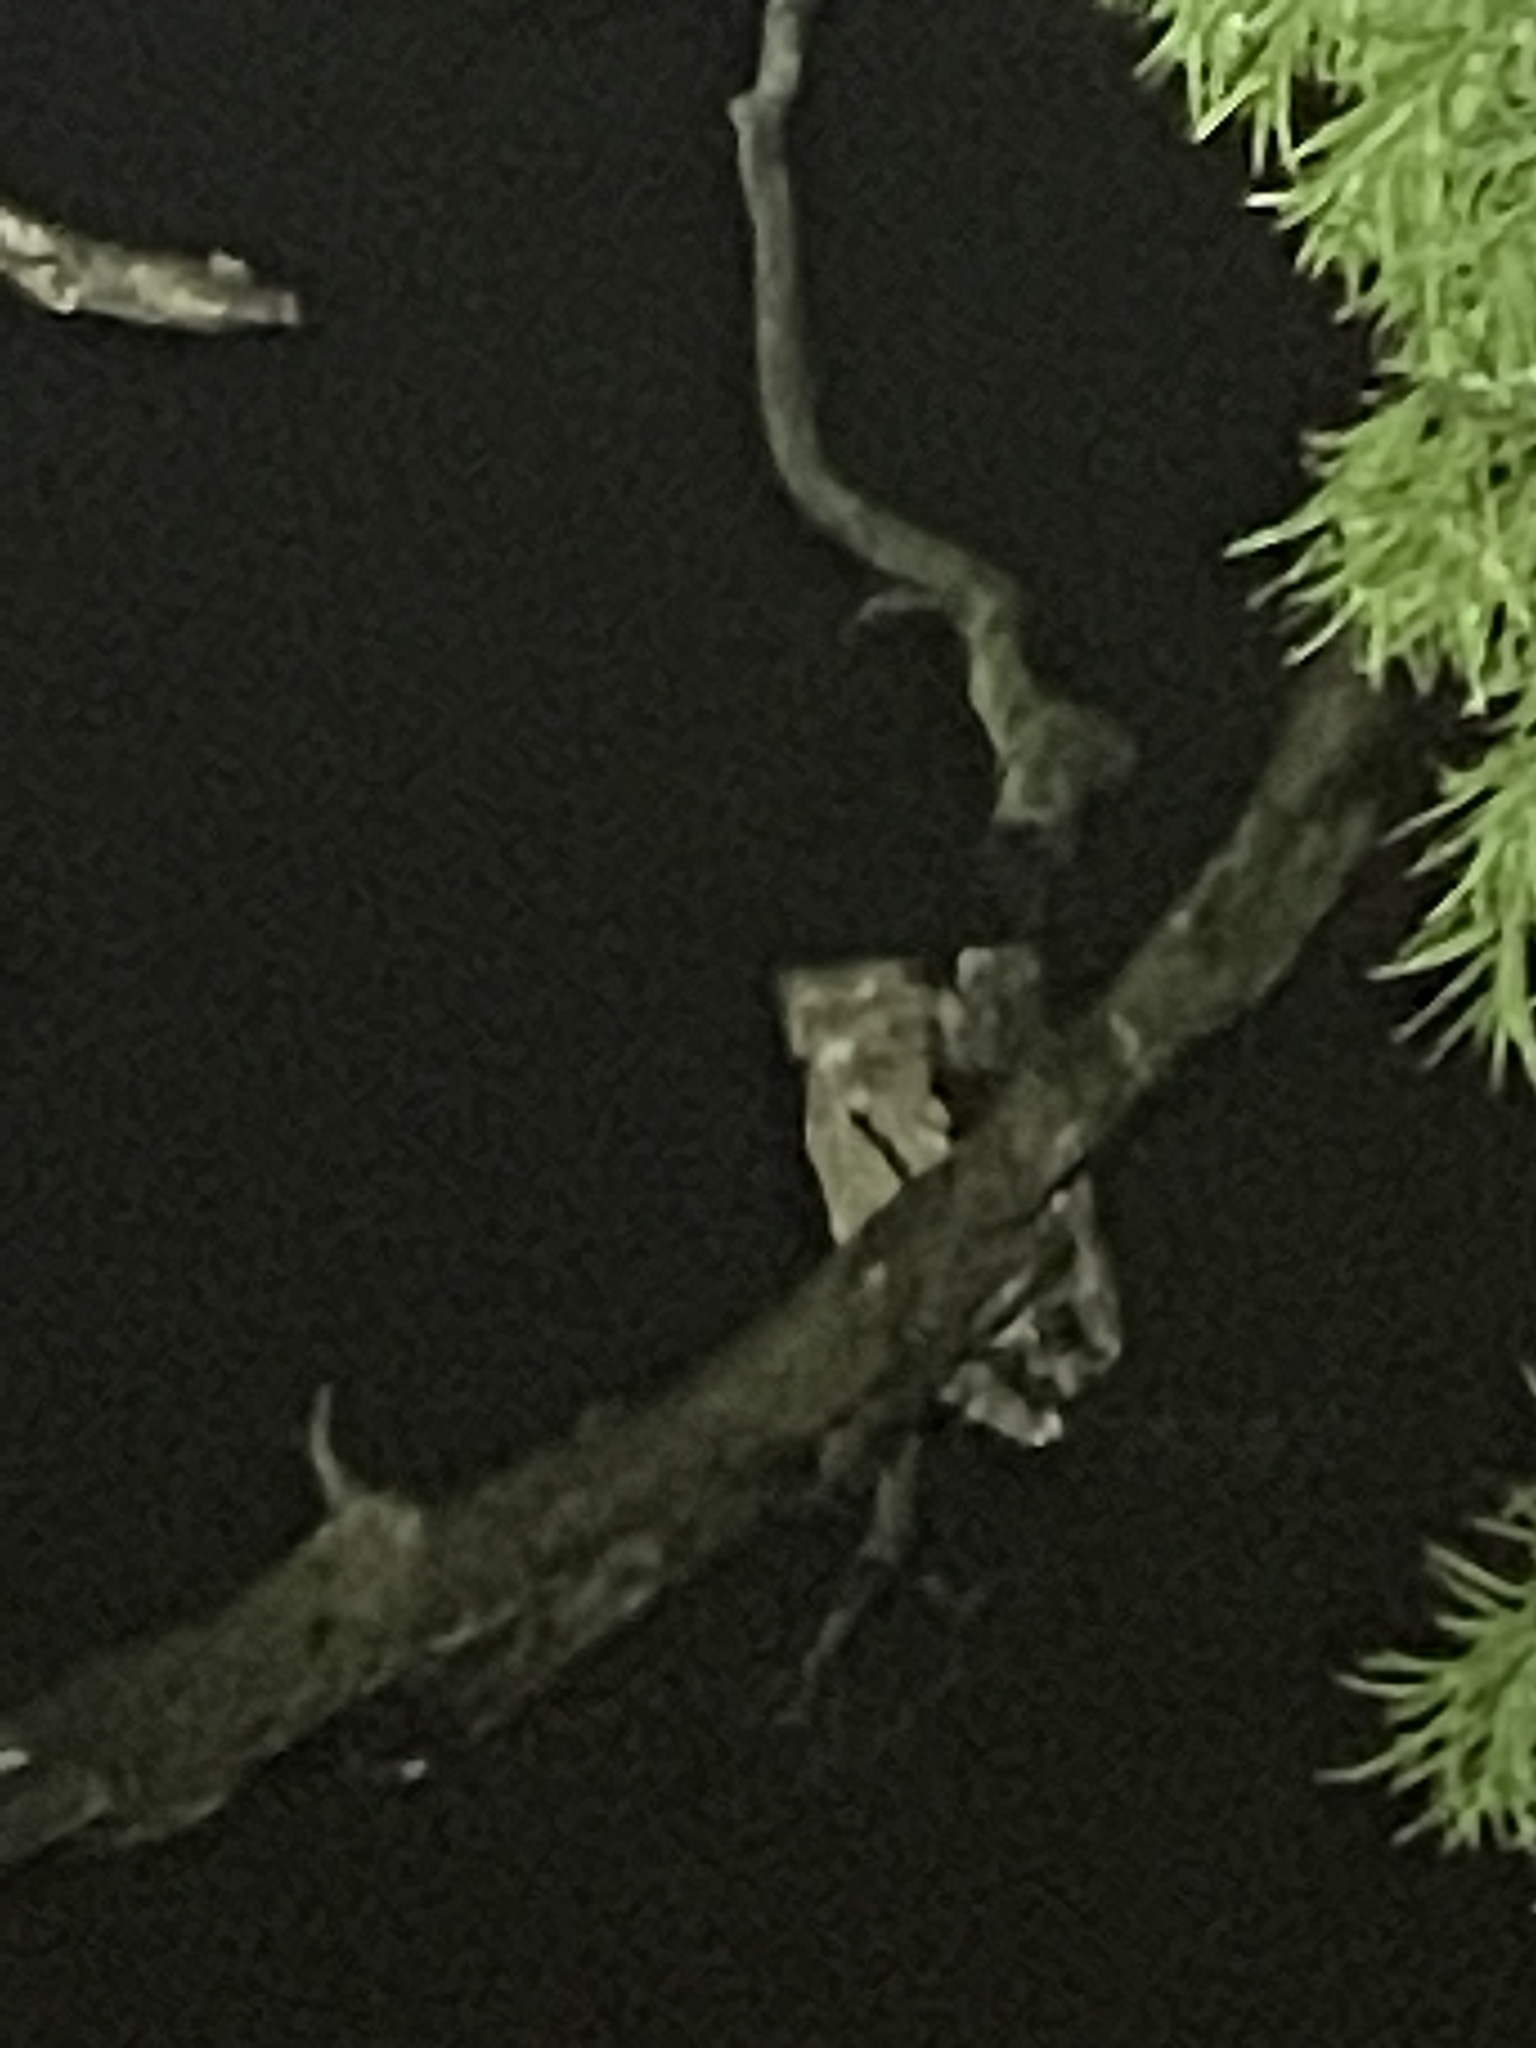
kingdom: Animalia
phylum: Chordata
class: Aves
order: Strigiformes
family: Strigidae
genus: Ketupa
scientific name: Ketupa zeylonensis
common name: Brown fish owl
